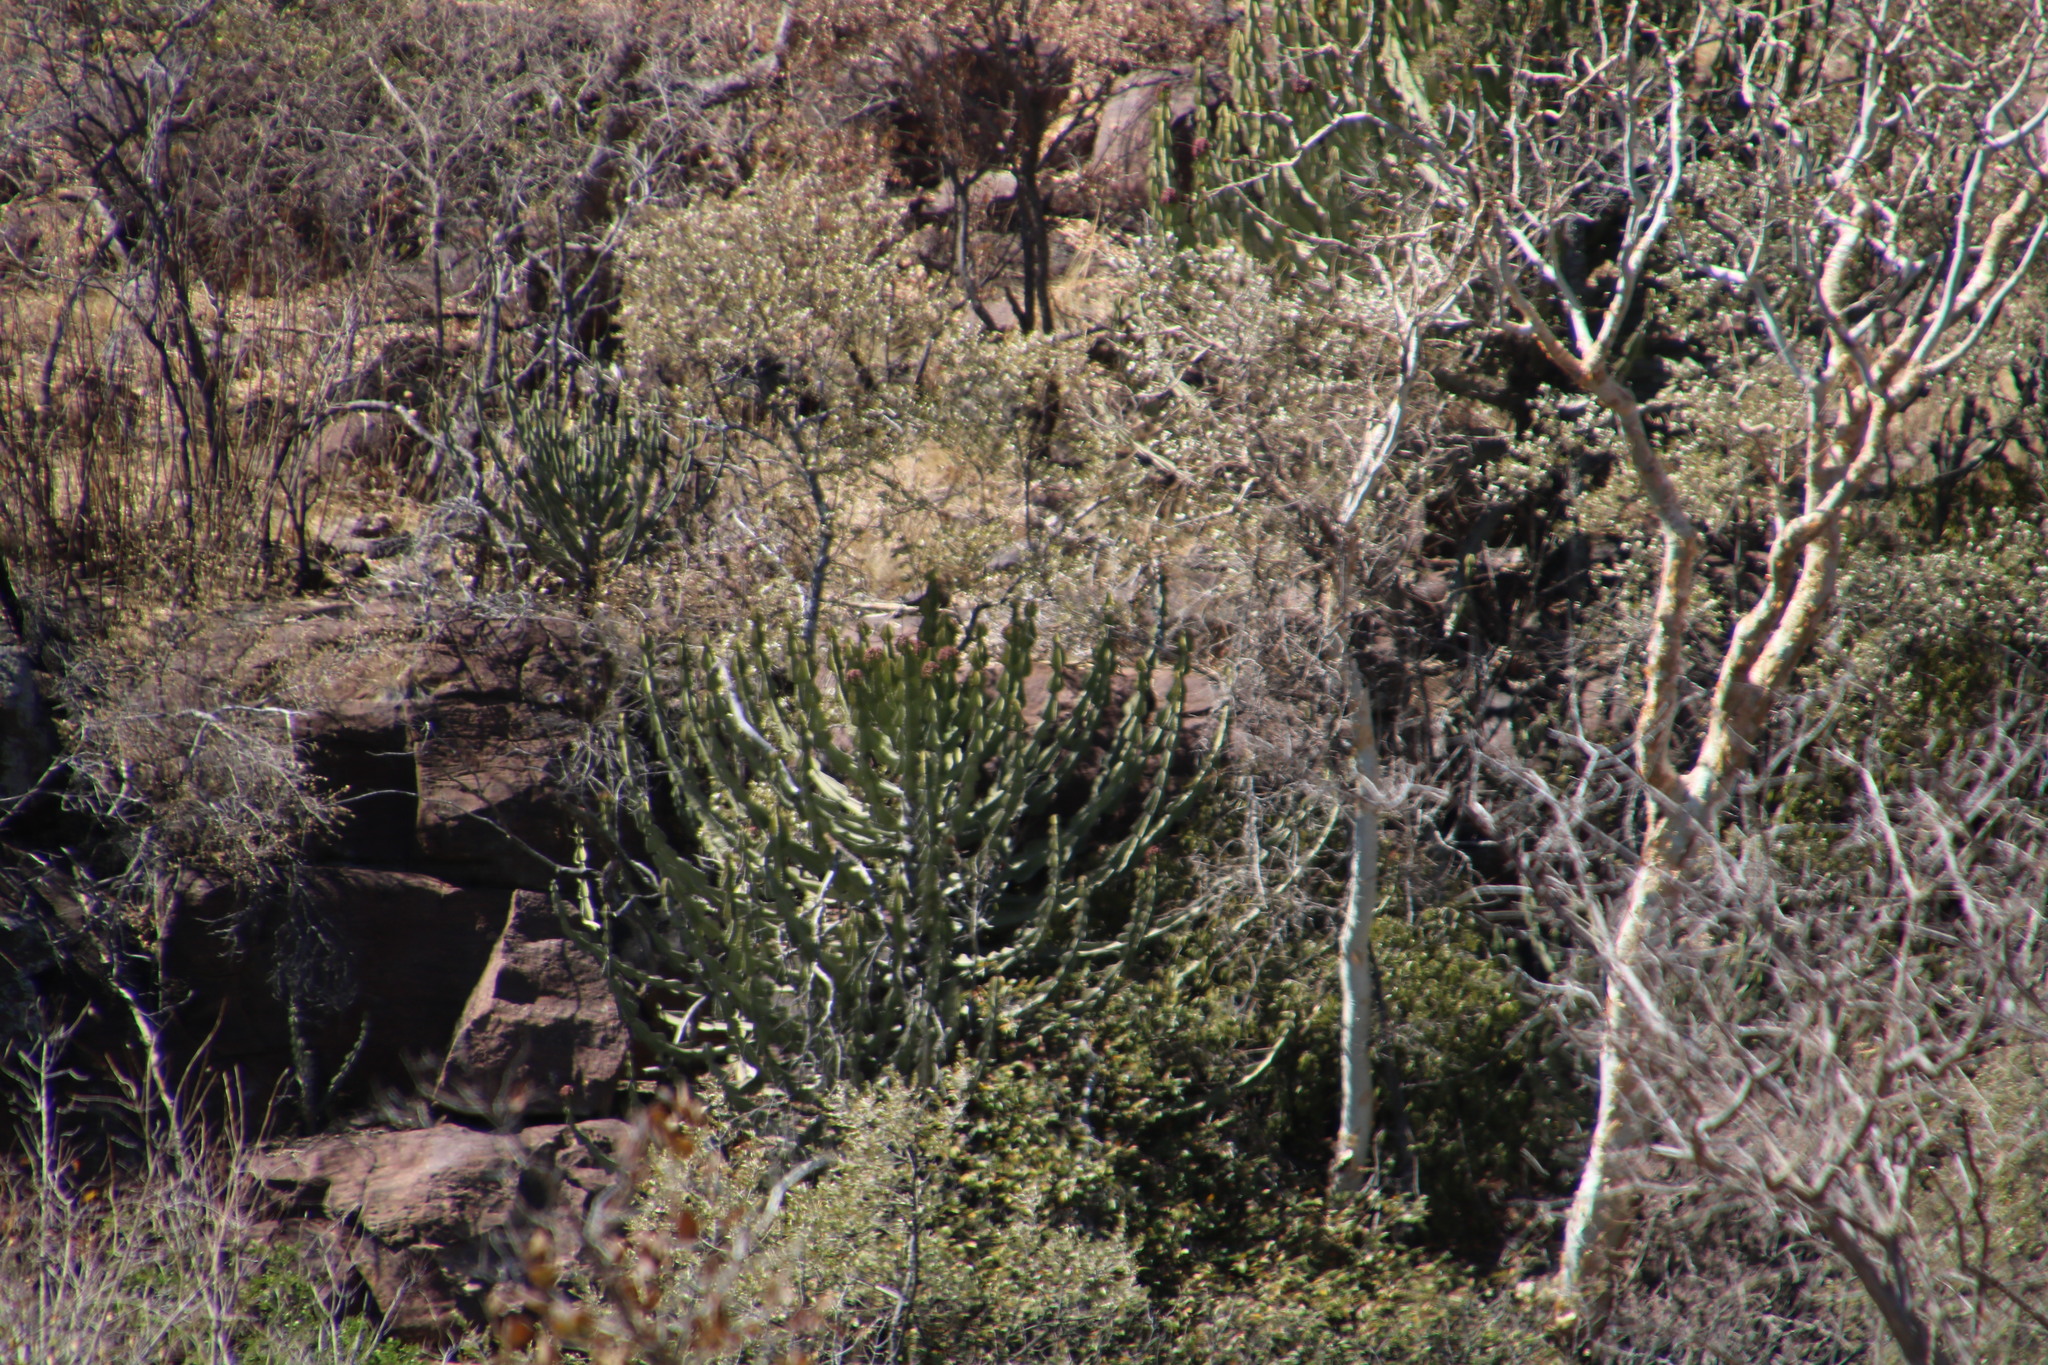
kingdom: Plantae
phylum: Tracheophyta
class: Magnoliopsida
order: Malpighiales
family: Euphorbiaceae
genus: Euphorbia
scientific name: Euphorbia cooperi
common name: Candelabra tree
